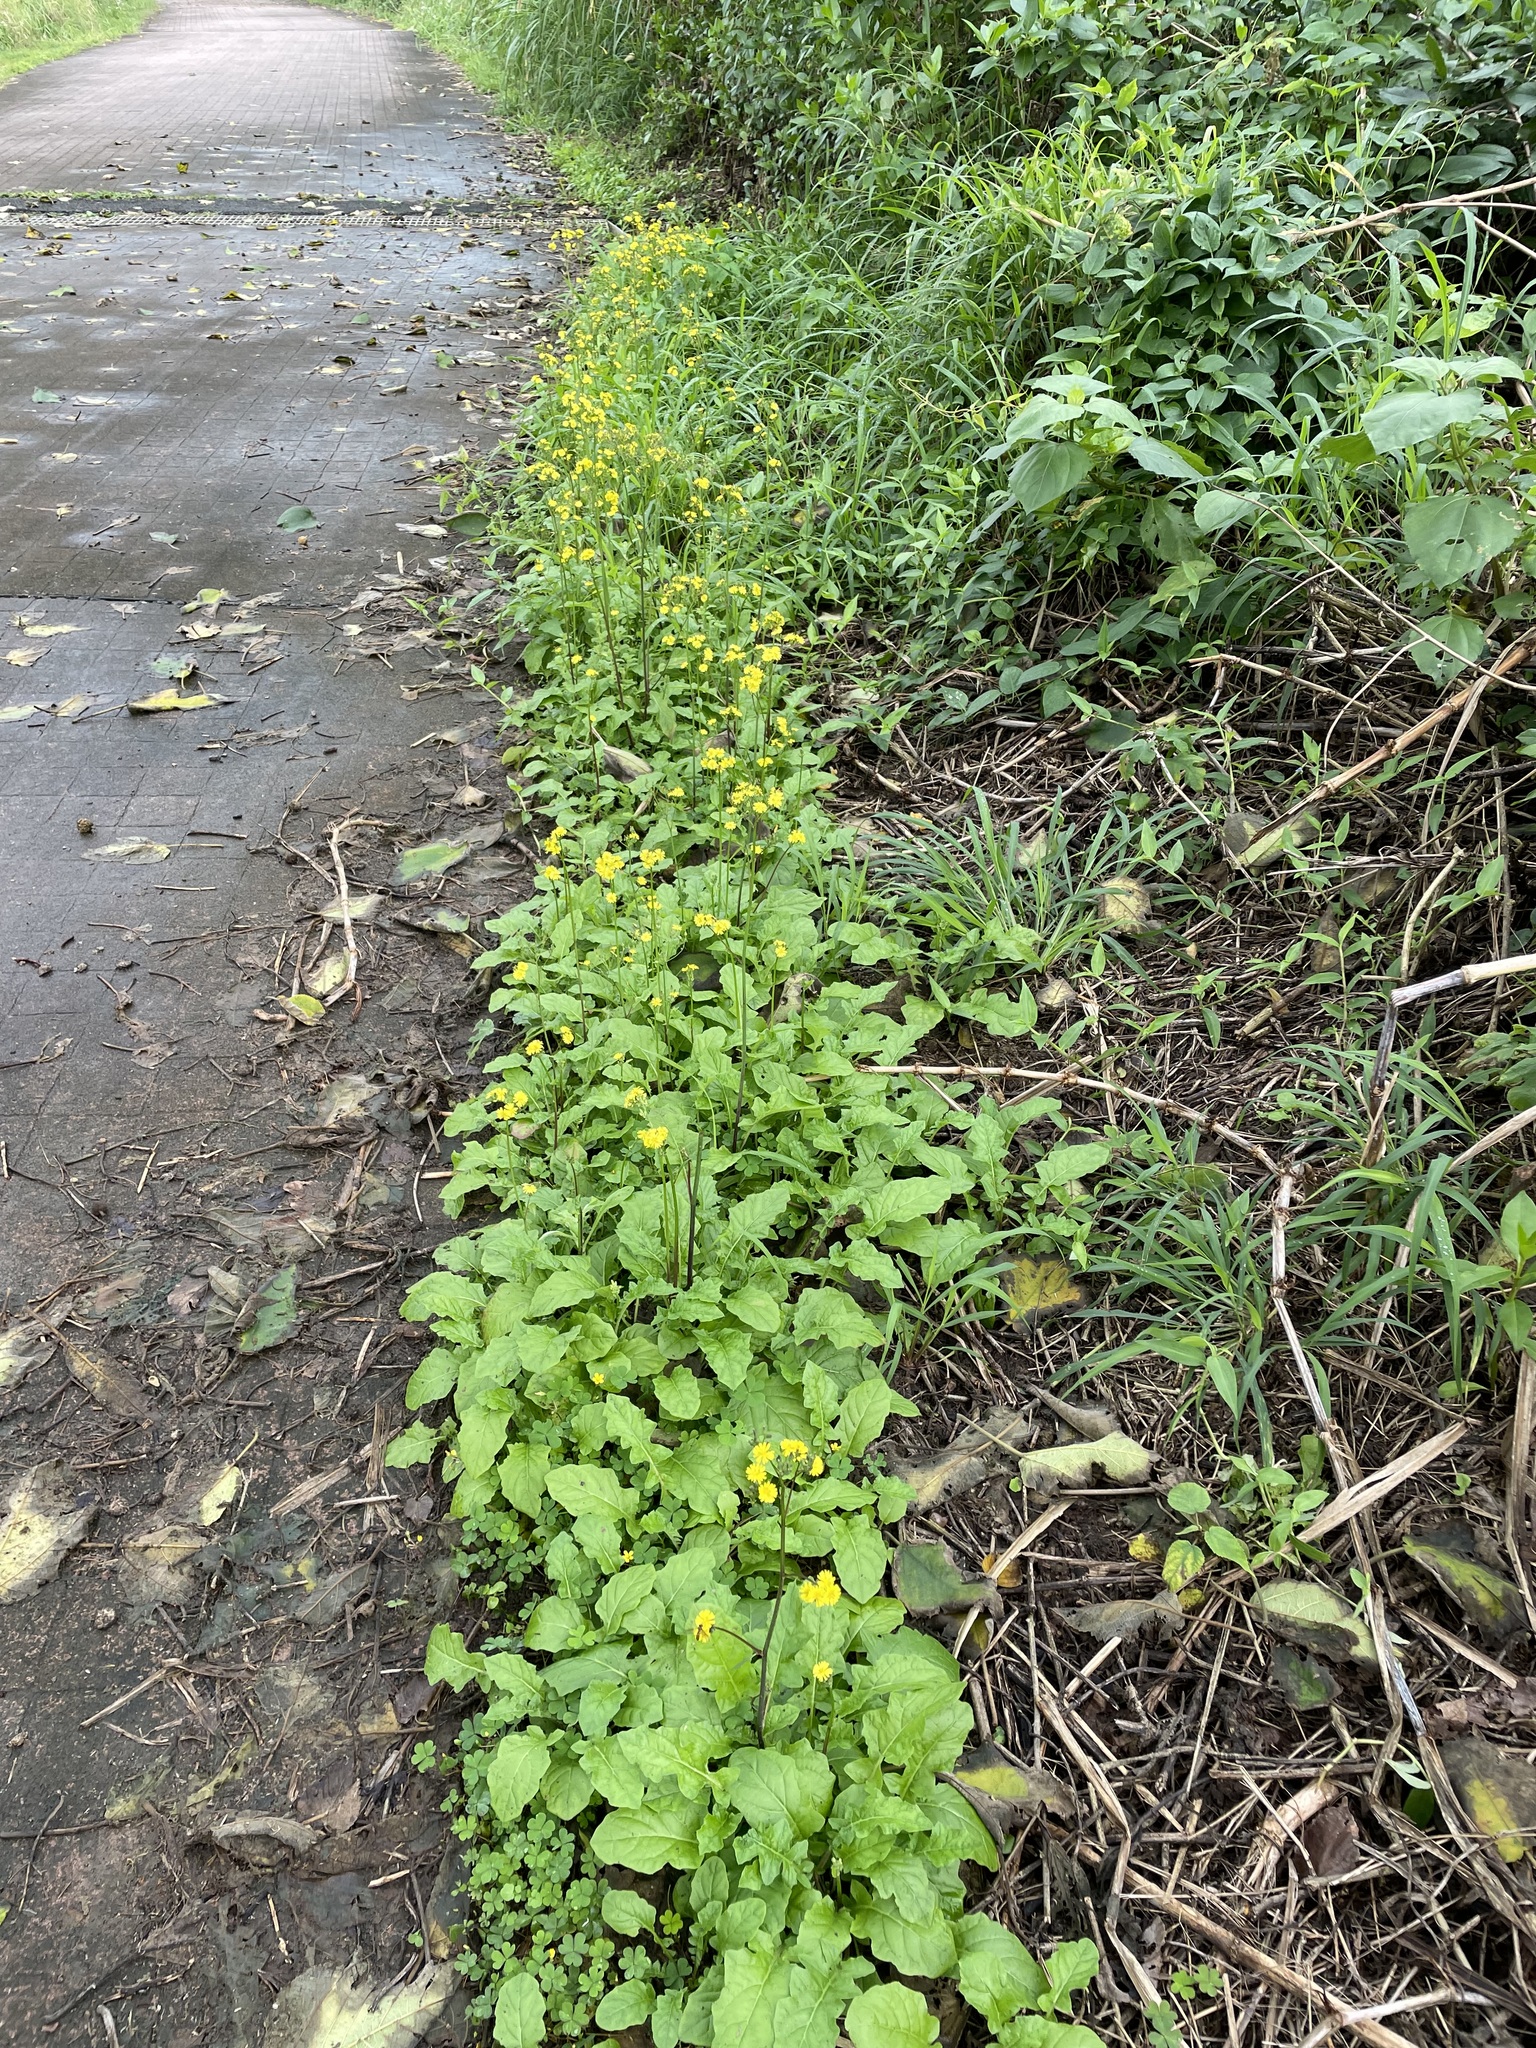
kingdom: Plantae
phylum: Tracheophyta
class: Magnoliopsida
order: Asterales
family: Asteraceae
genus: Youngia
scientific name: Youngia japonica
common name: Oriental false hawksbeard
